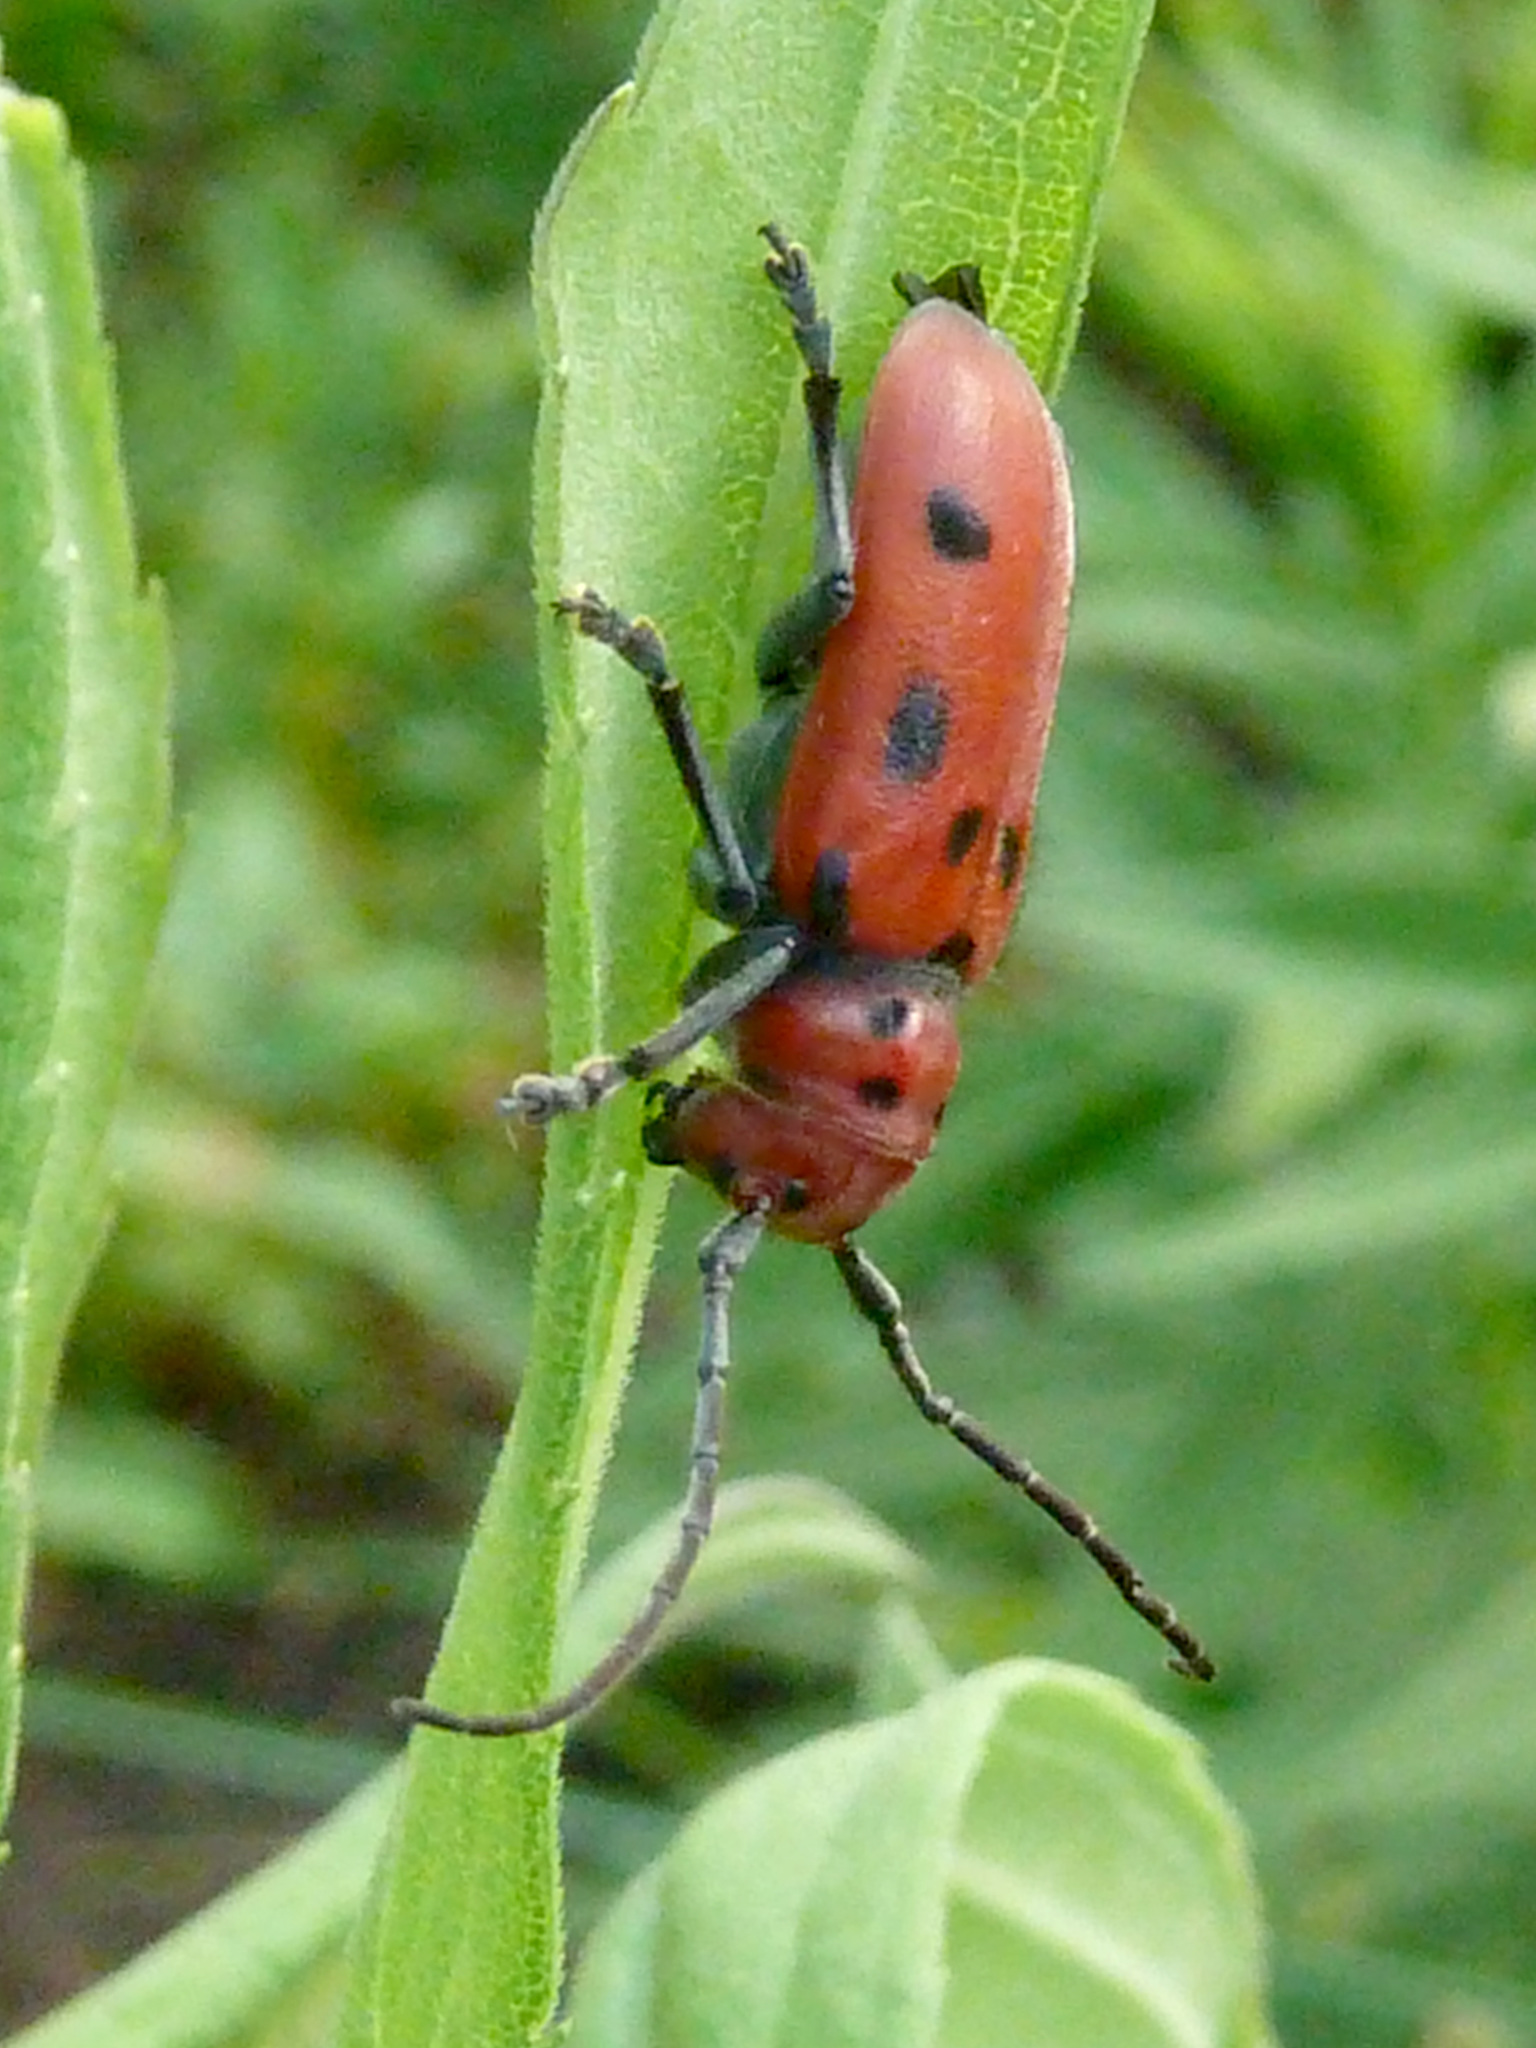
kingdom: Animalia
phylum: Arthropoda
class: Insecta
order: Coleoptera
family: Cerambycidae
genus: Tetraopes
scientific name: Tetraopes tetrophthalmus
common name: Red milkweed beetle
